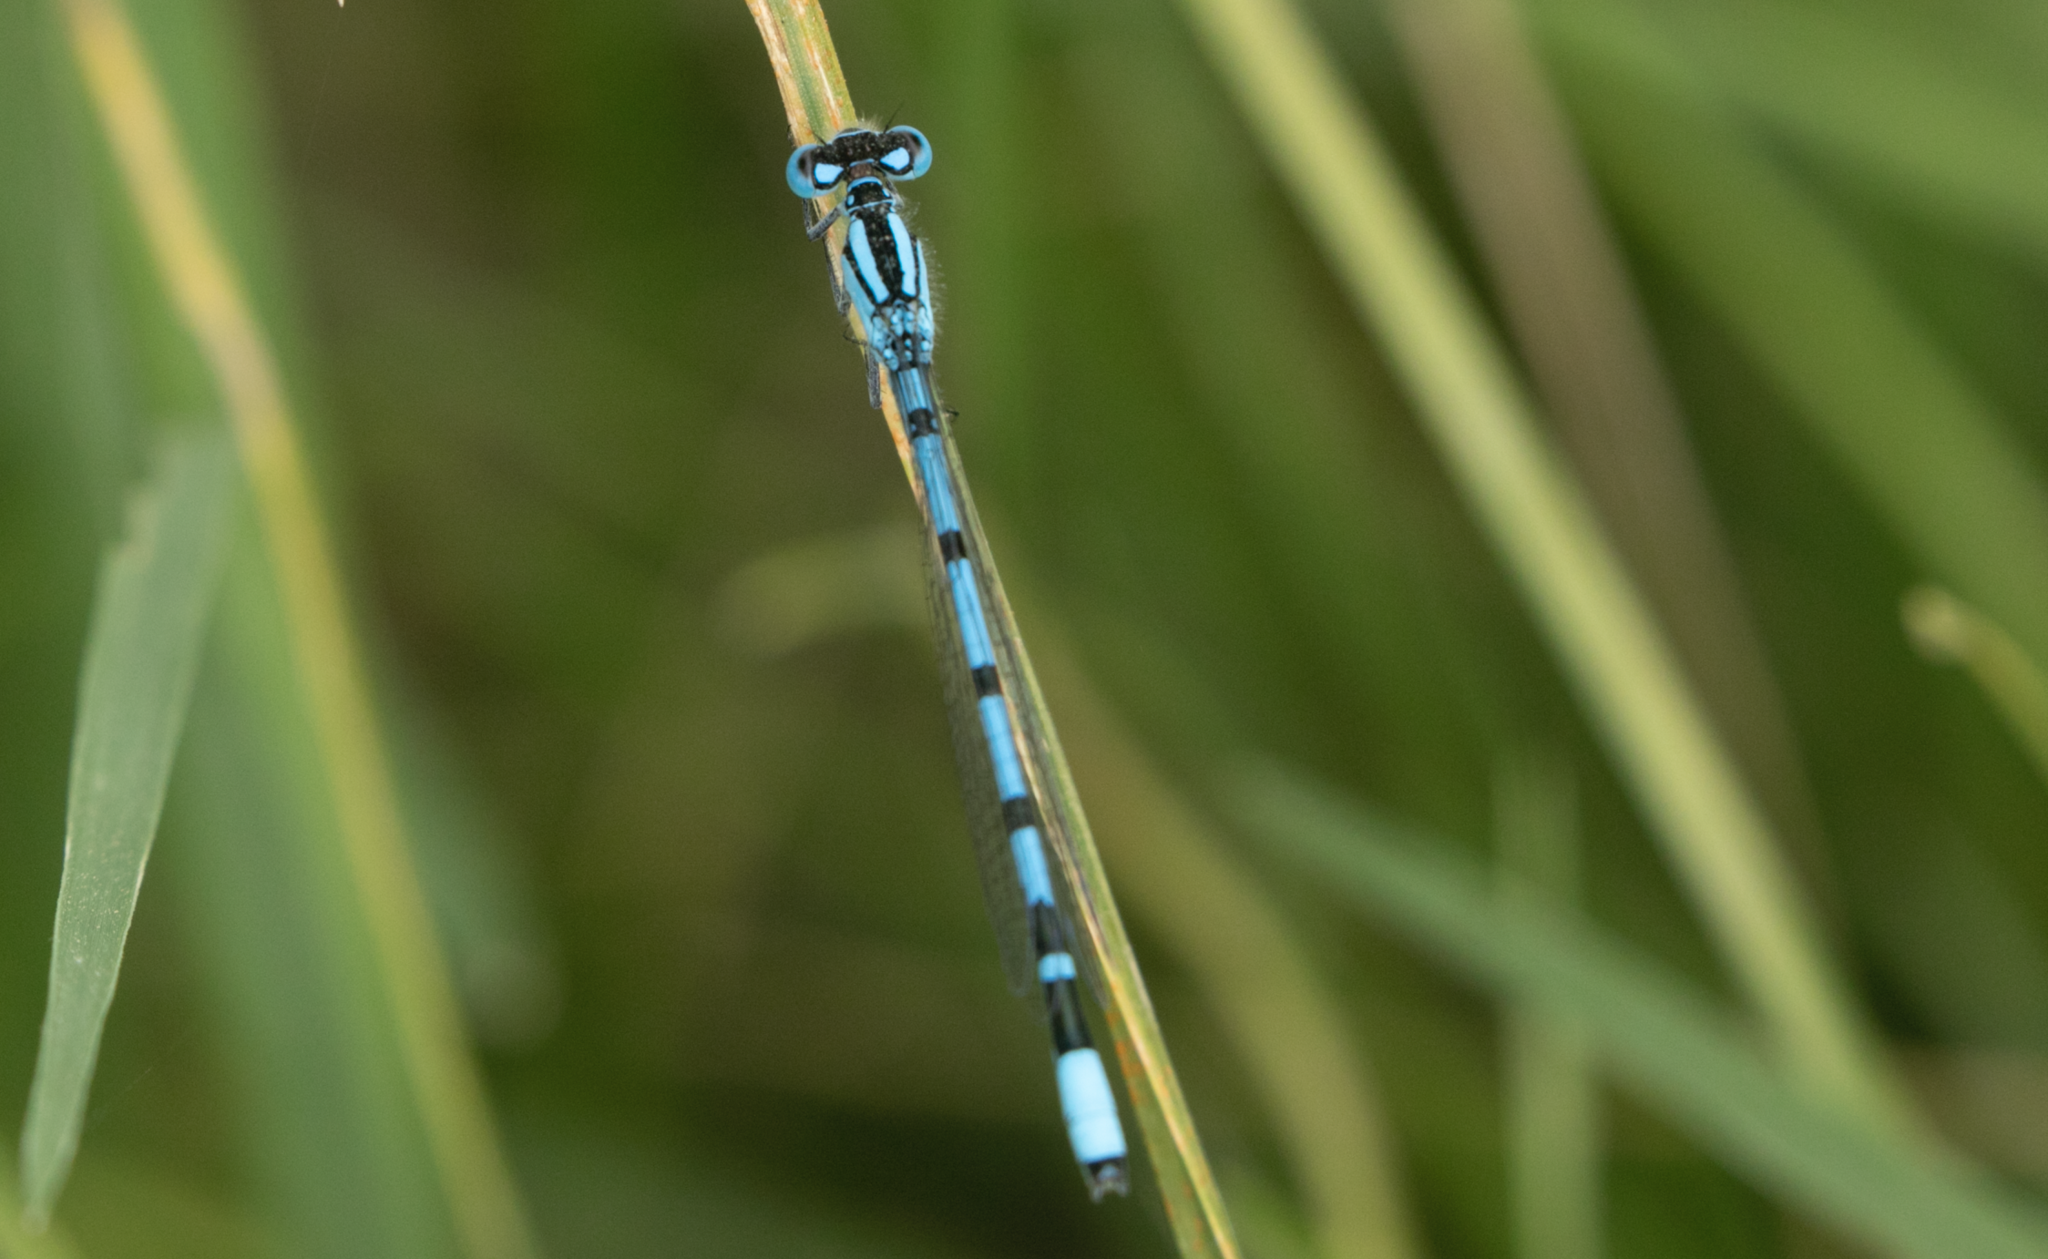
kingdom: Animalia
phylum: Arthropoda
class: Insecta
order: Odonata
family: Coenagrionidae
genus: Enallagma
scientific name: Enallagma cyathigerum
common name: Common blue damselfly
